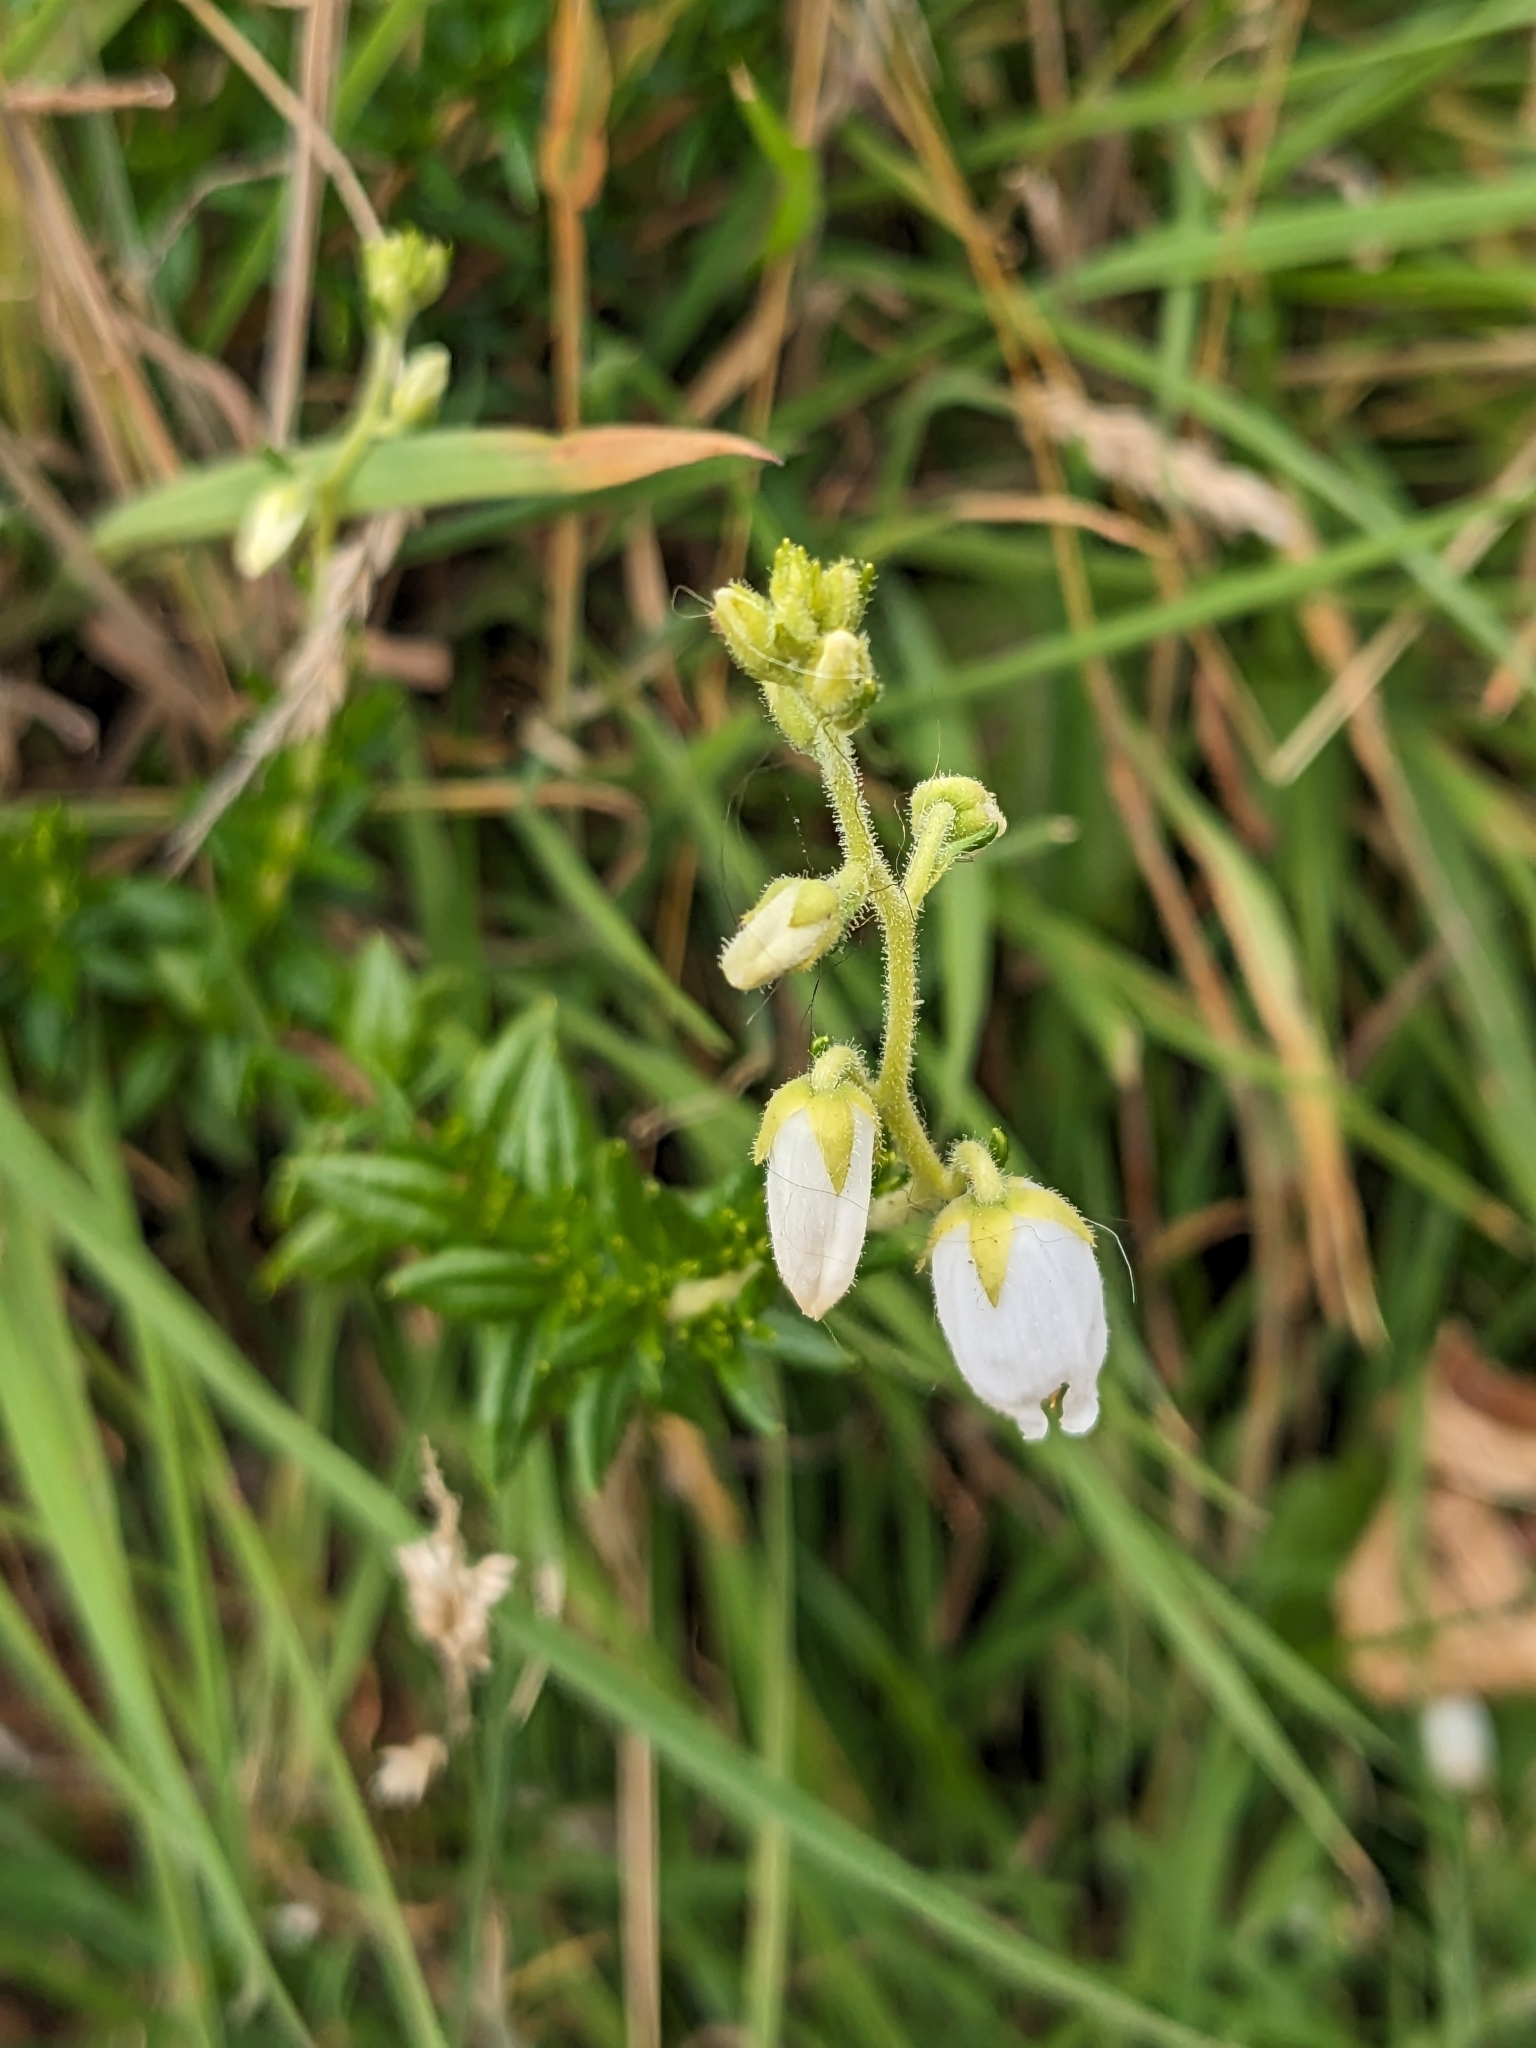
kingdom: Plantae
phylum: Tracheophyta
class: Magnoliopsida
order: Ericales
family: Ericaceae
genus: Daboecia
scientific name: Daboecia cantabrica
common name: St. dabeoc's-heath
